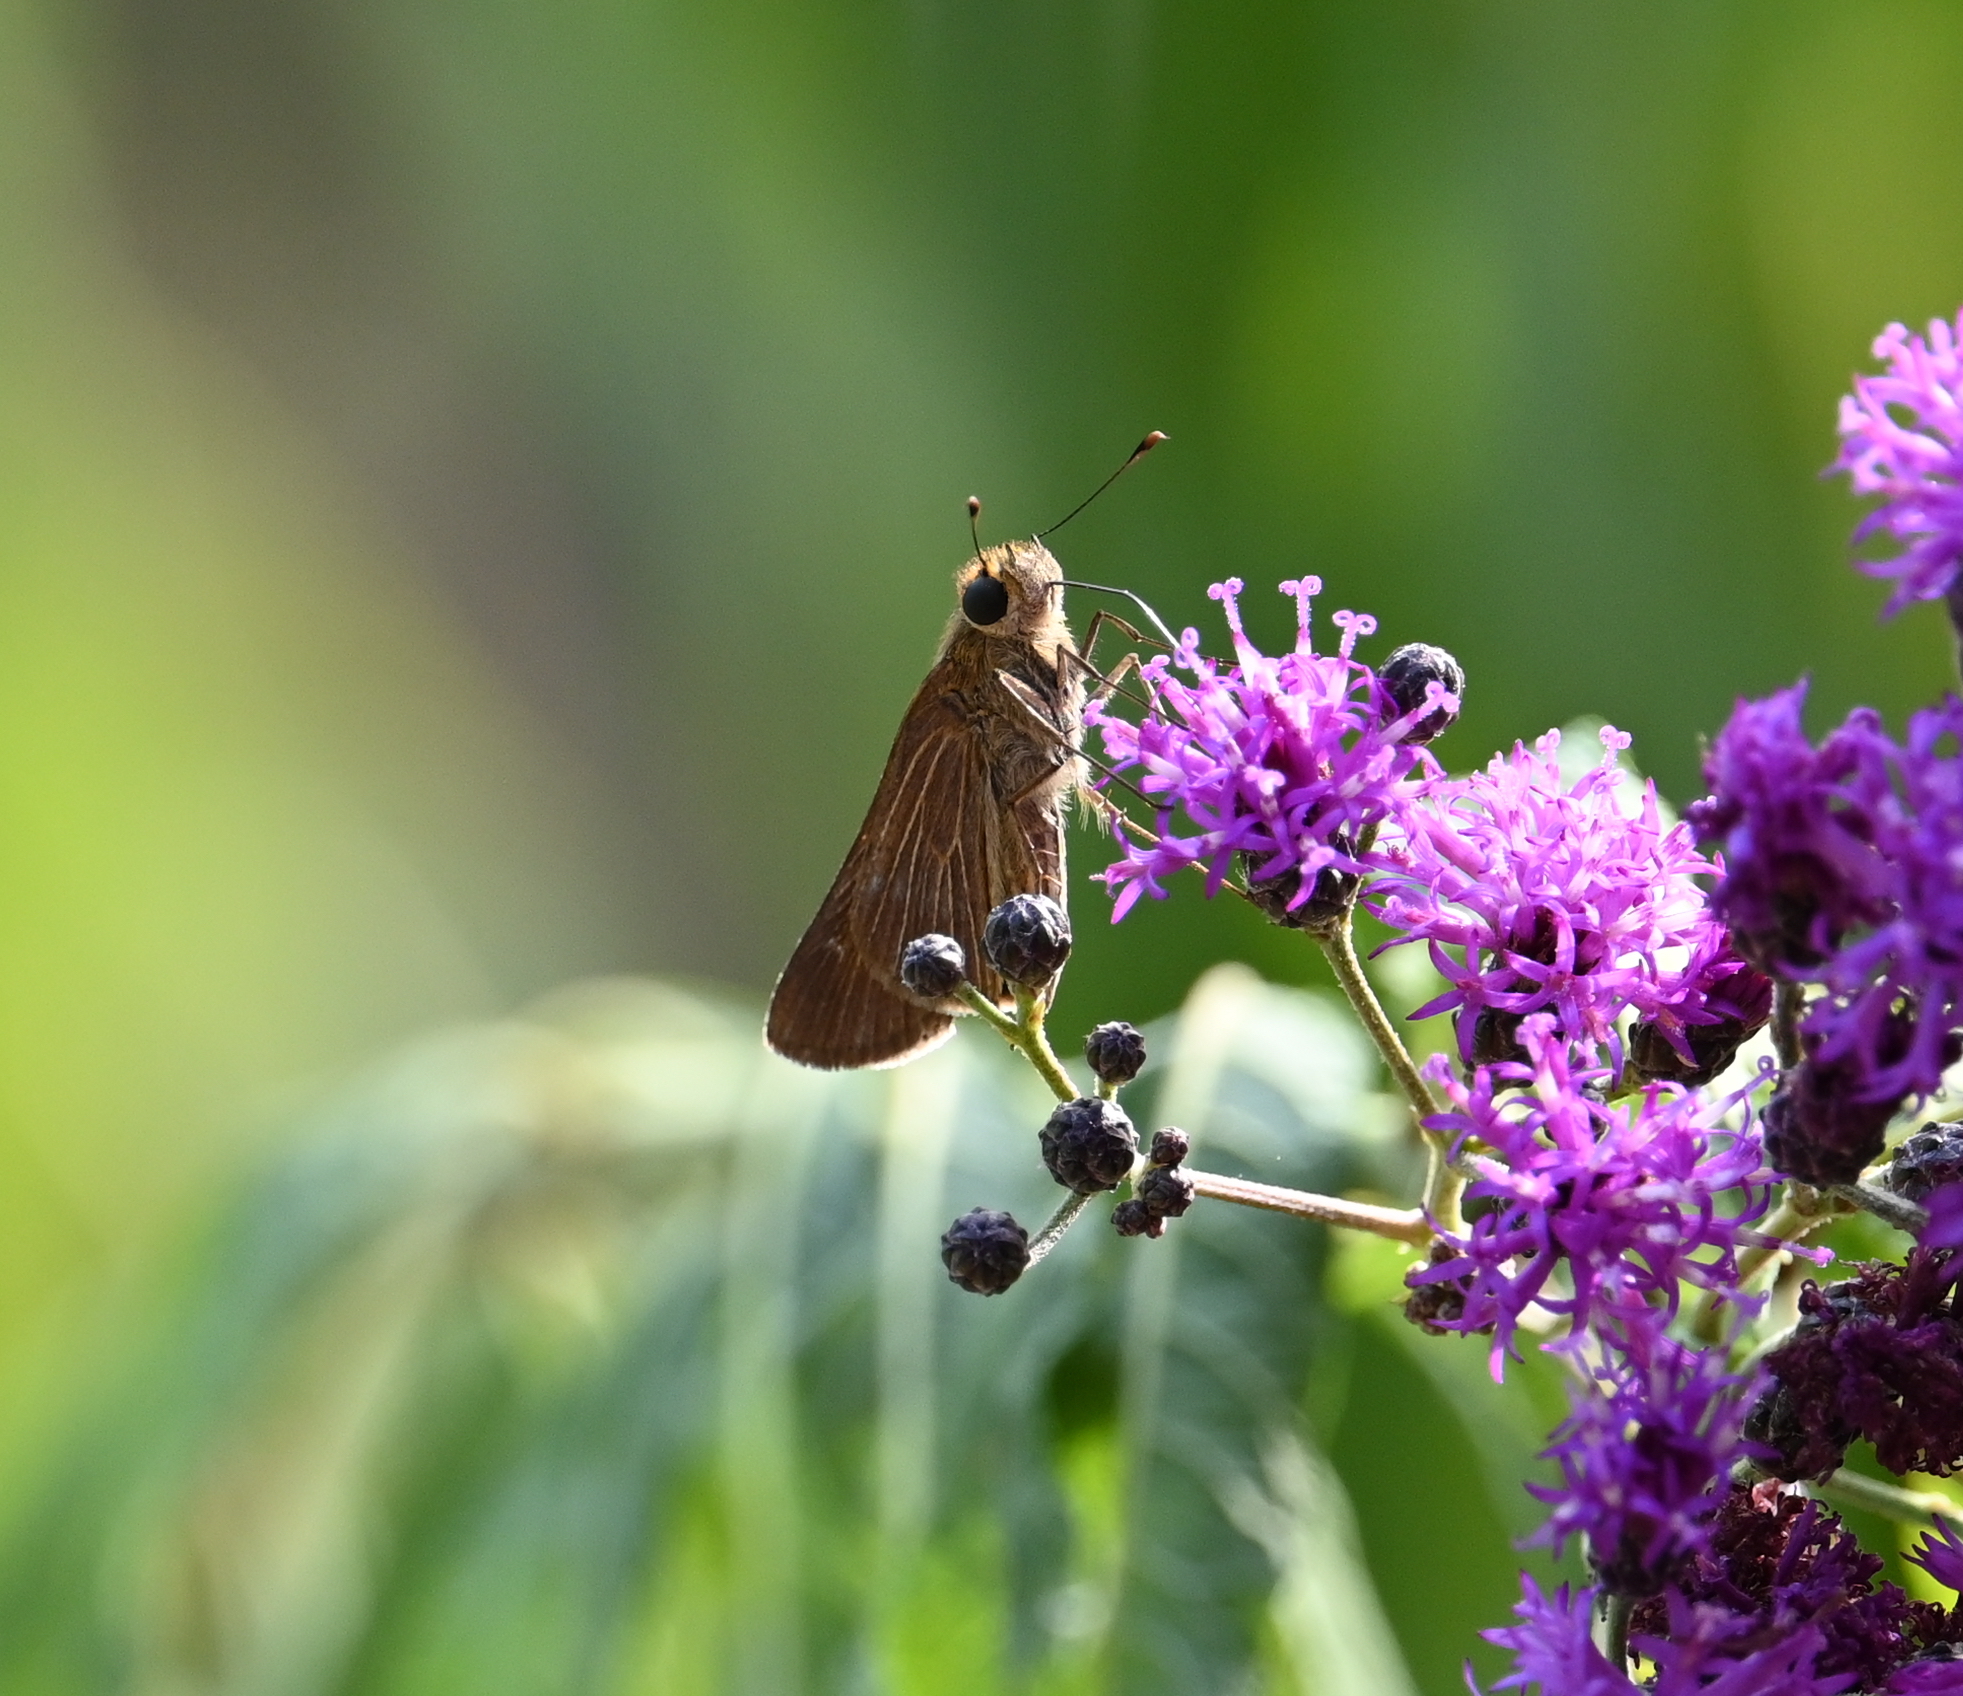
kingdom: Animalia
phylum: Arthropoda
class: Insecta
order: Lepidoptera
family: Hesperiidae
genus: Panoquina
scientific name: Panoquina ocola
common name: Ocola skipper
